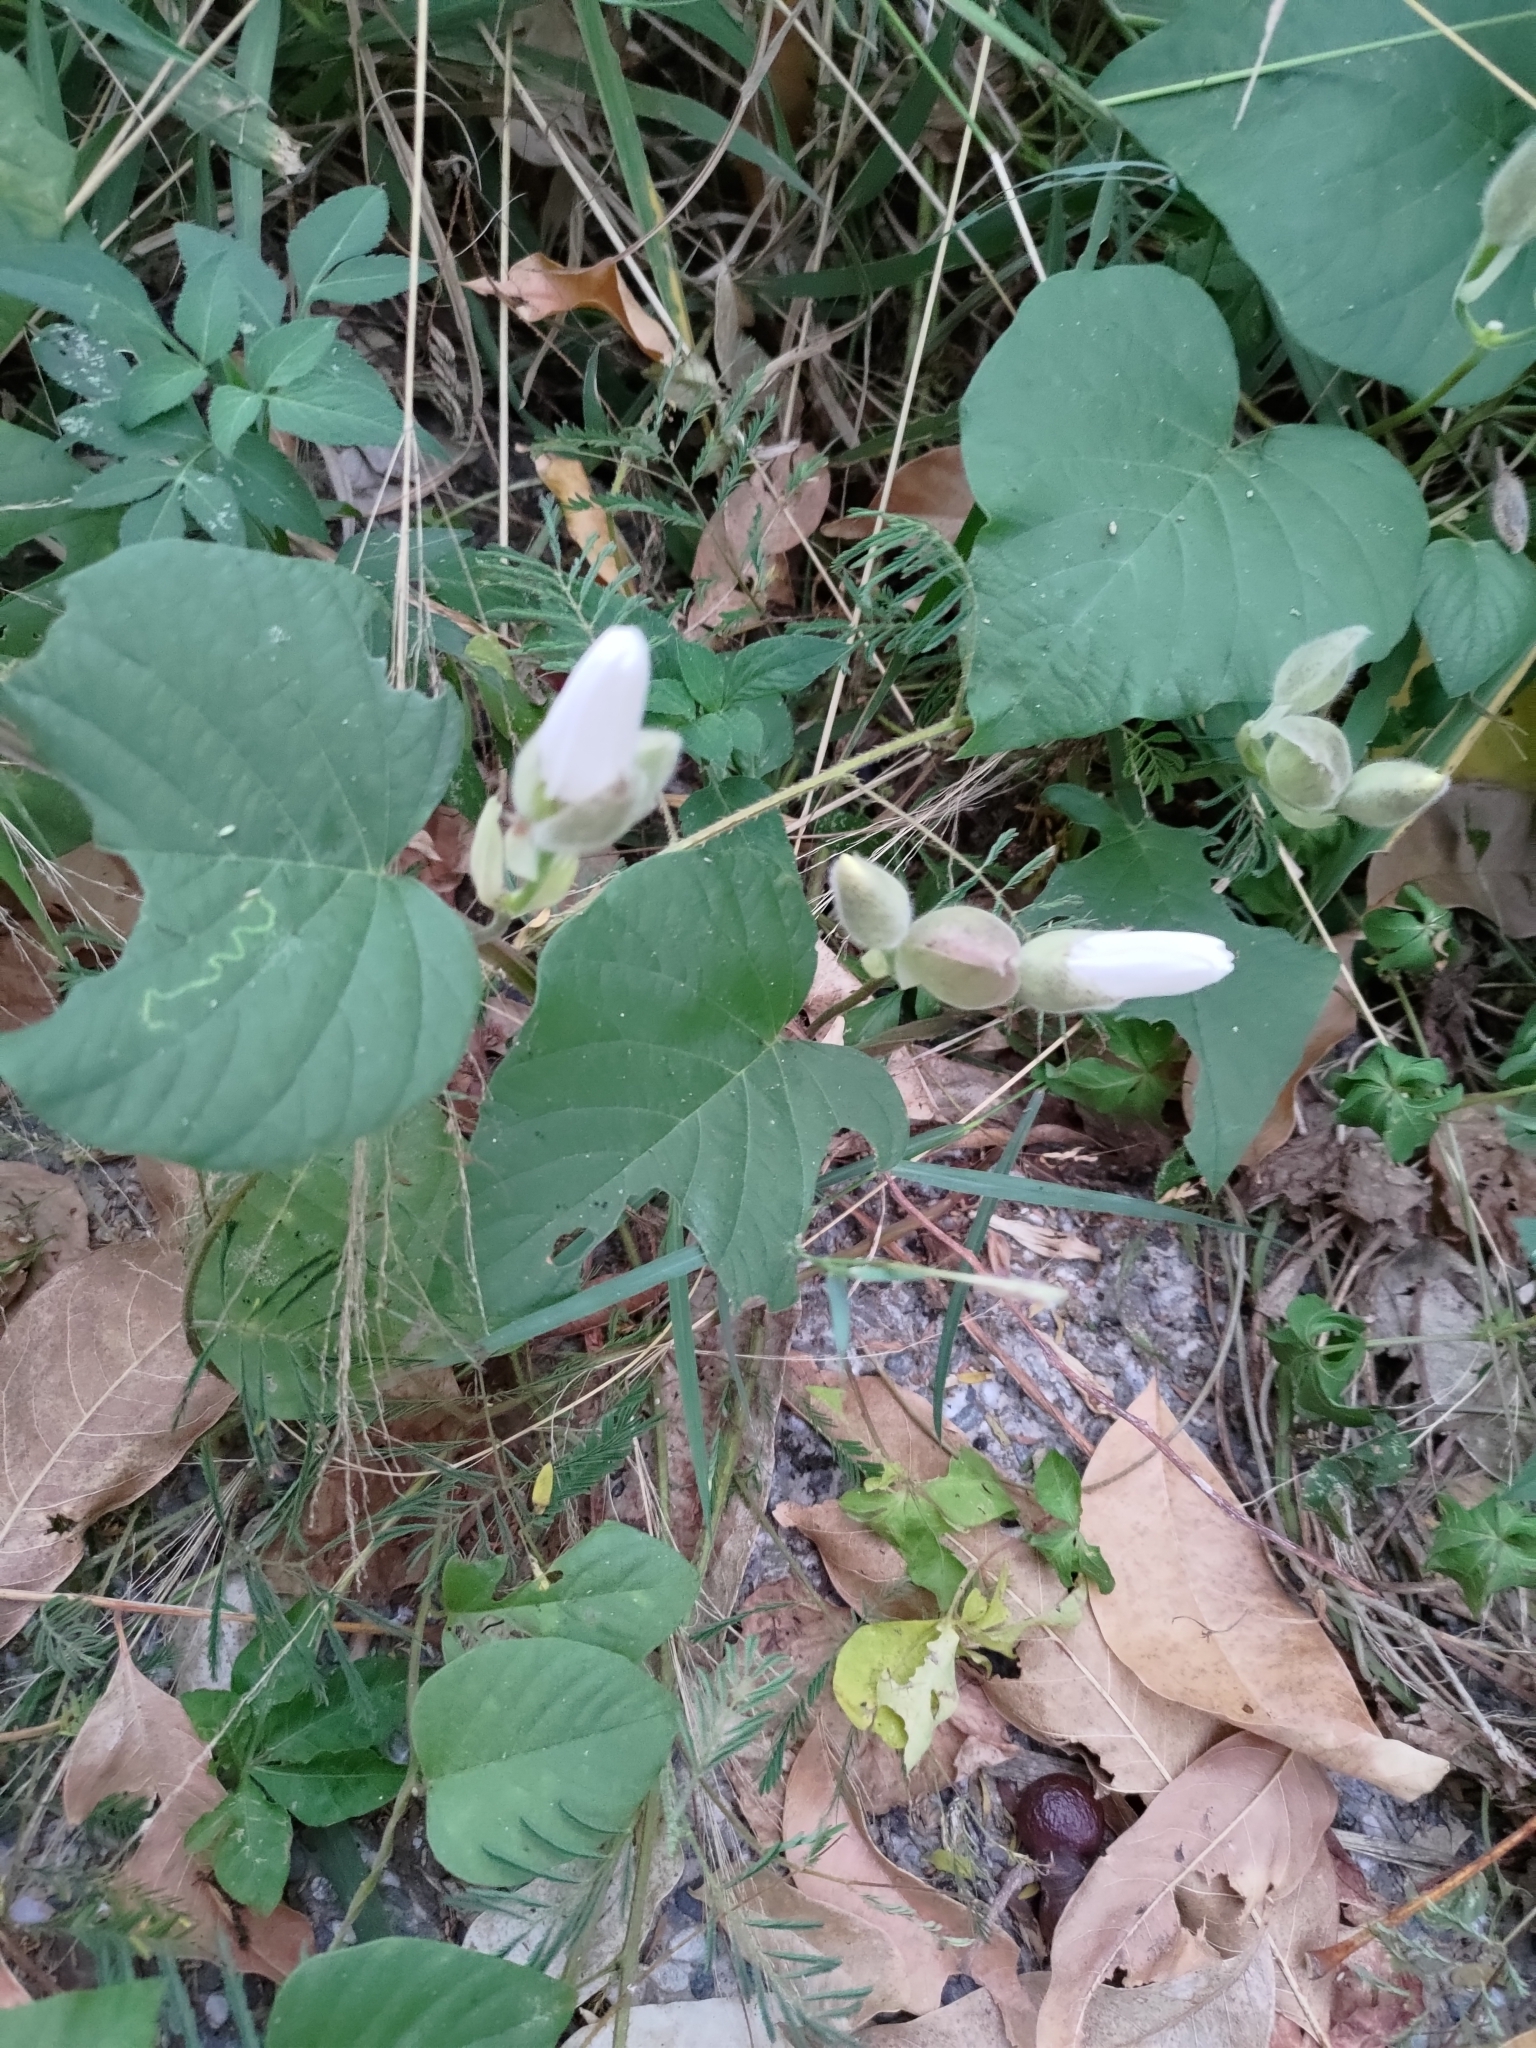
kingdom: Plantae
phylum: Tracheophyta
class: Magnoliopsida
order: Solanales
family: Convolvulaceae
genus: Operculina
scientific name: Operculina turpethum
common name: Transparent wood-rose
